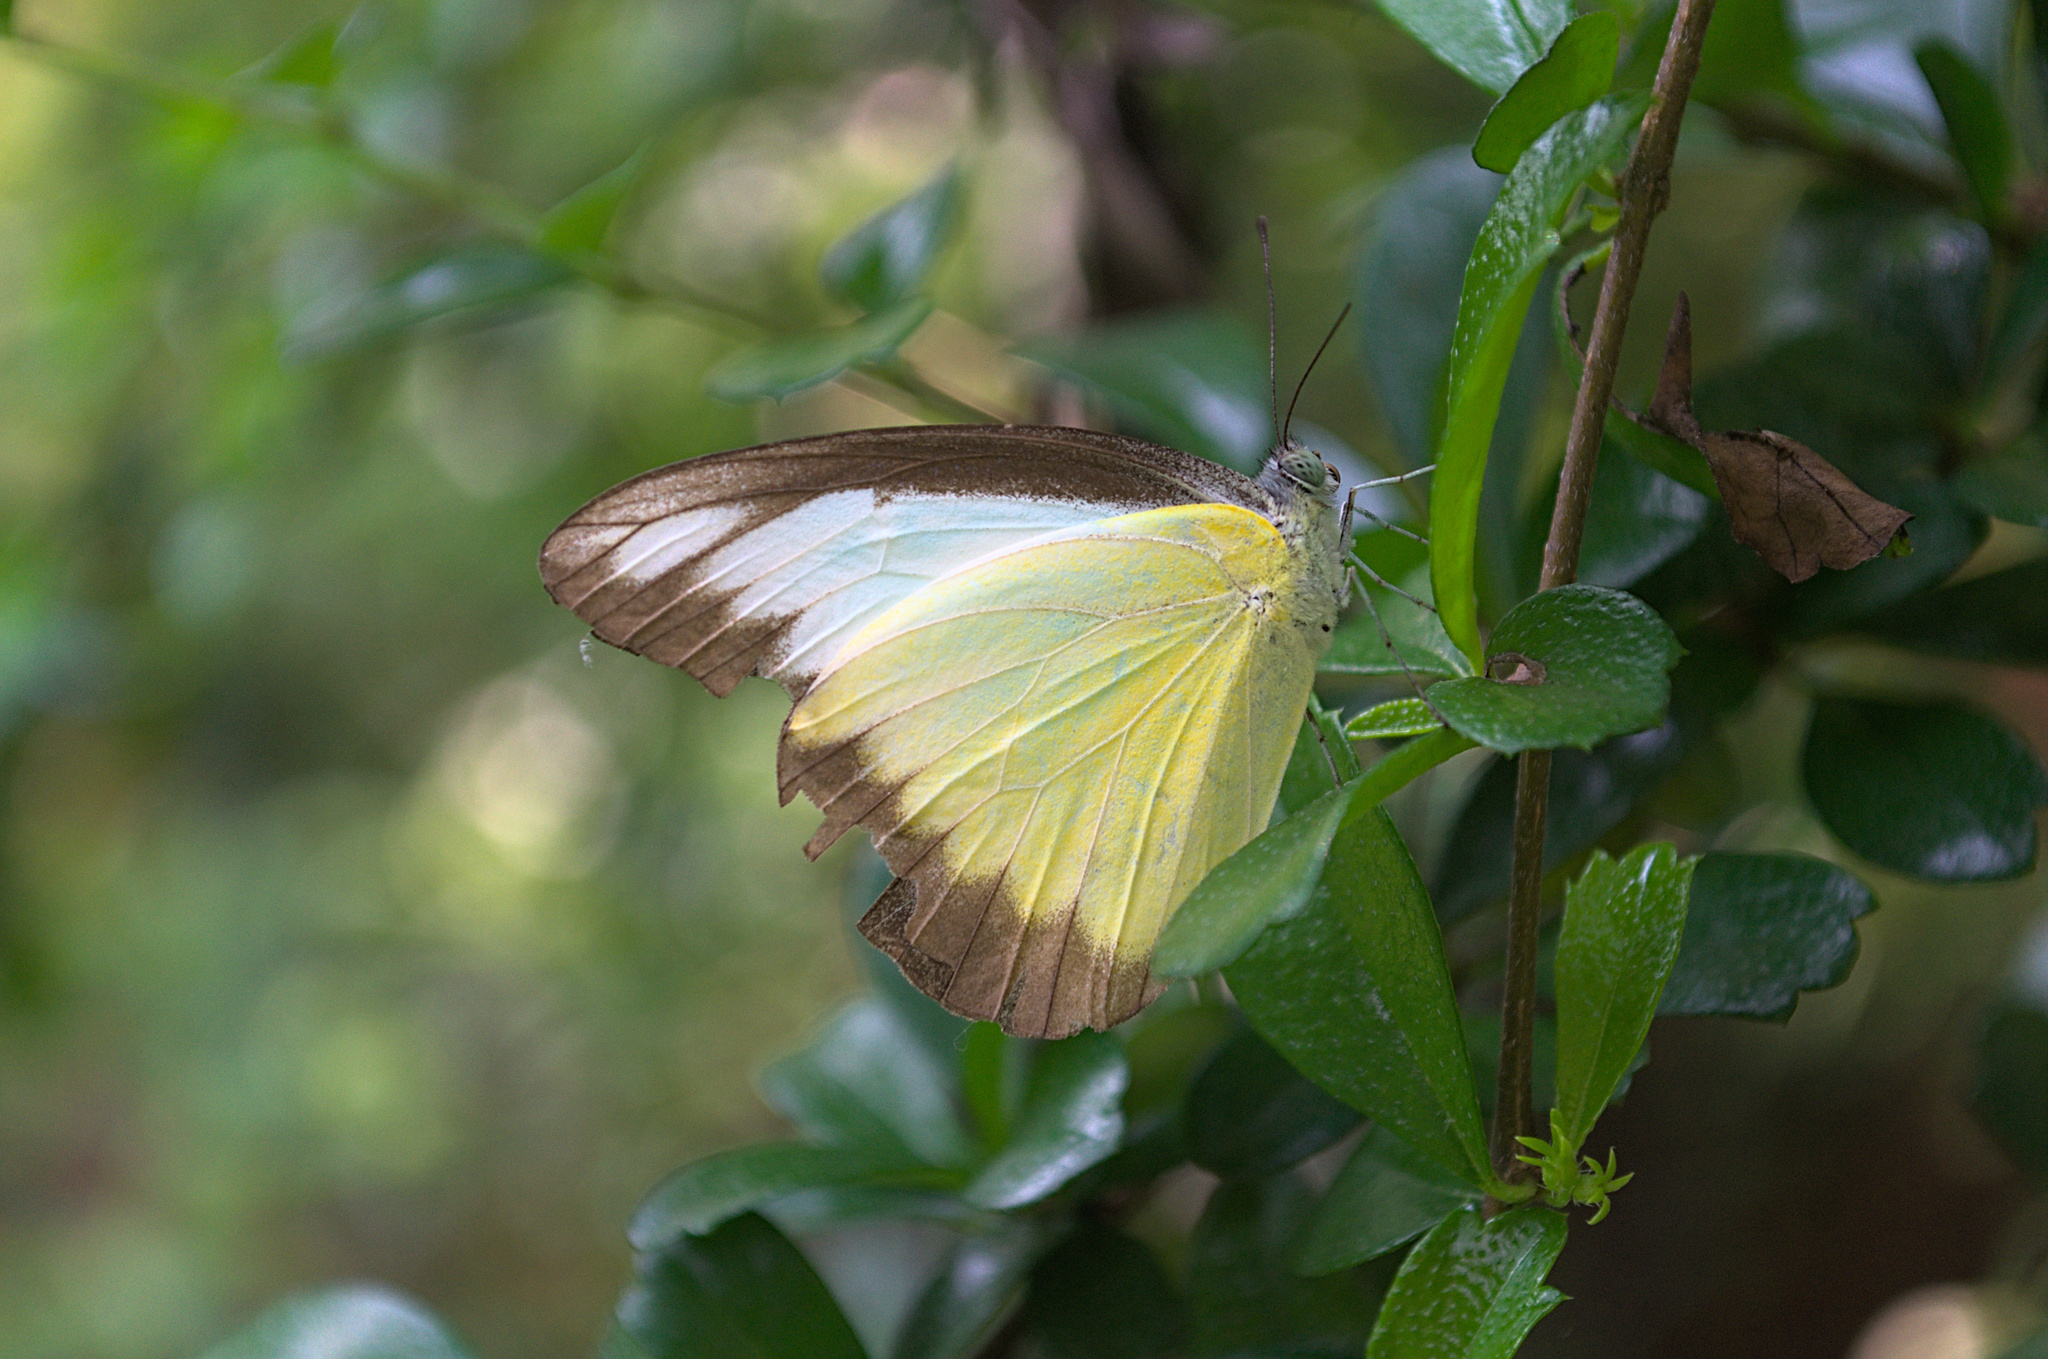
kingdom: Animalia
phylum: Arthropoda
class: Insecta
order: Lepidoptera
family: Pieridae
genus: Appias
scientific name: Appias lyncida
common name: Chocolate albatross
